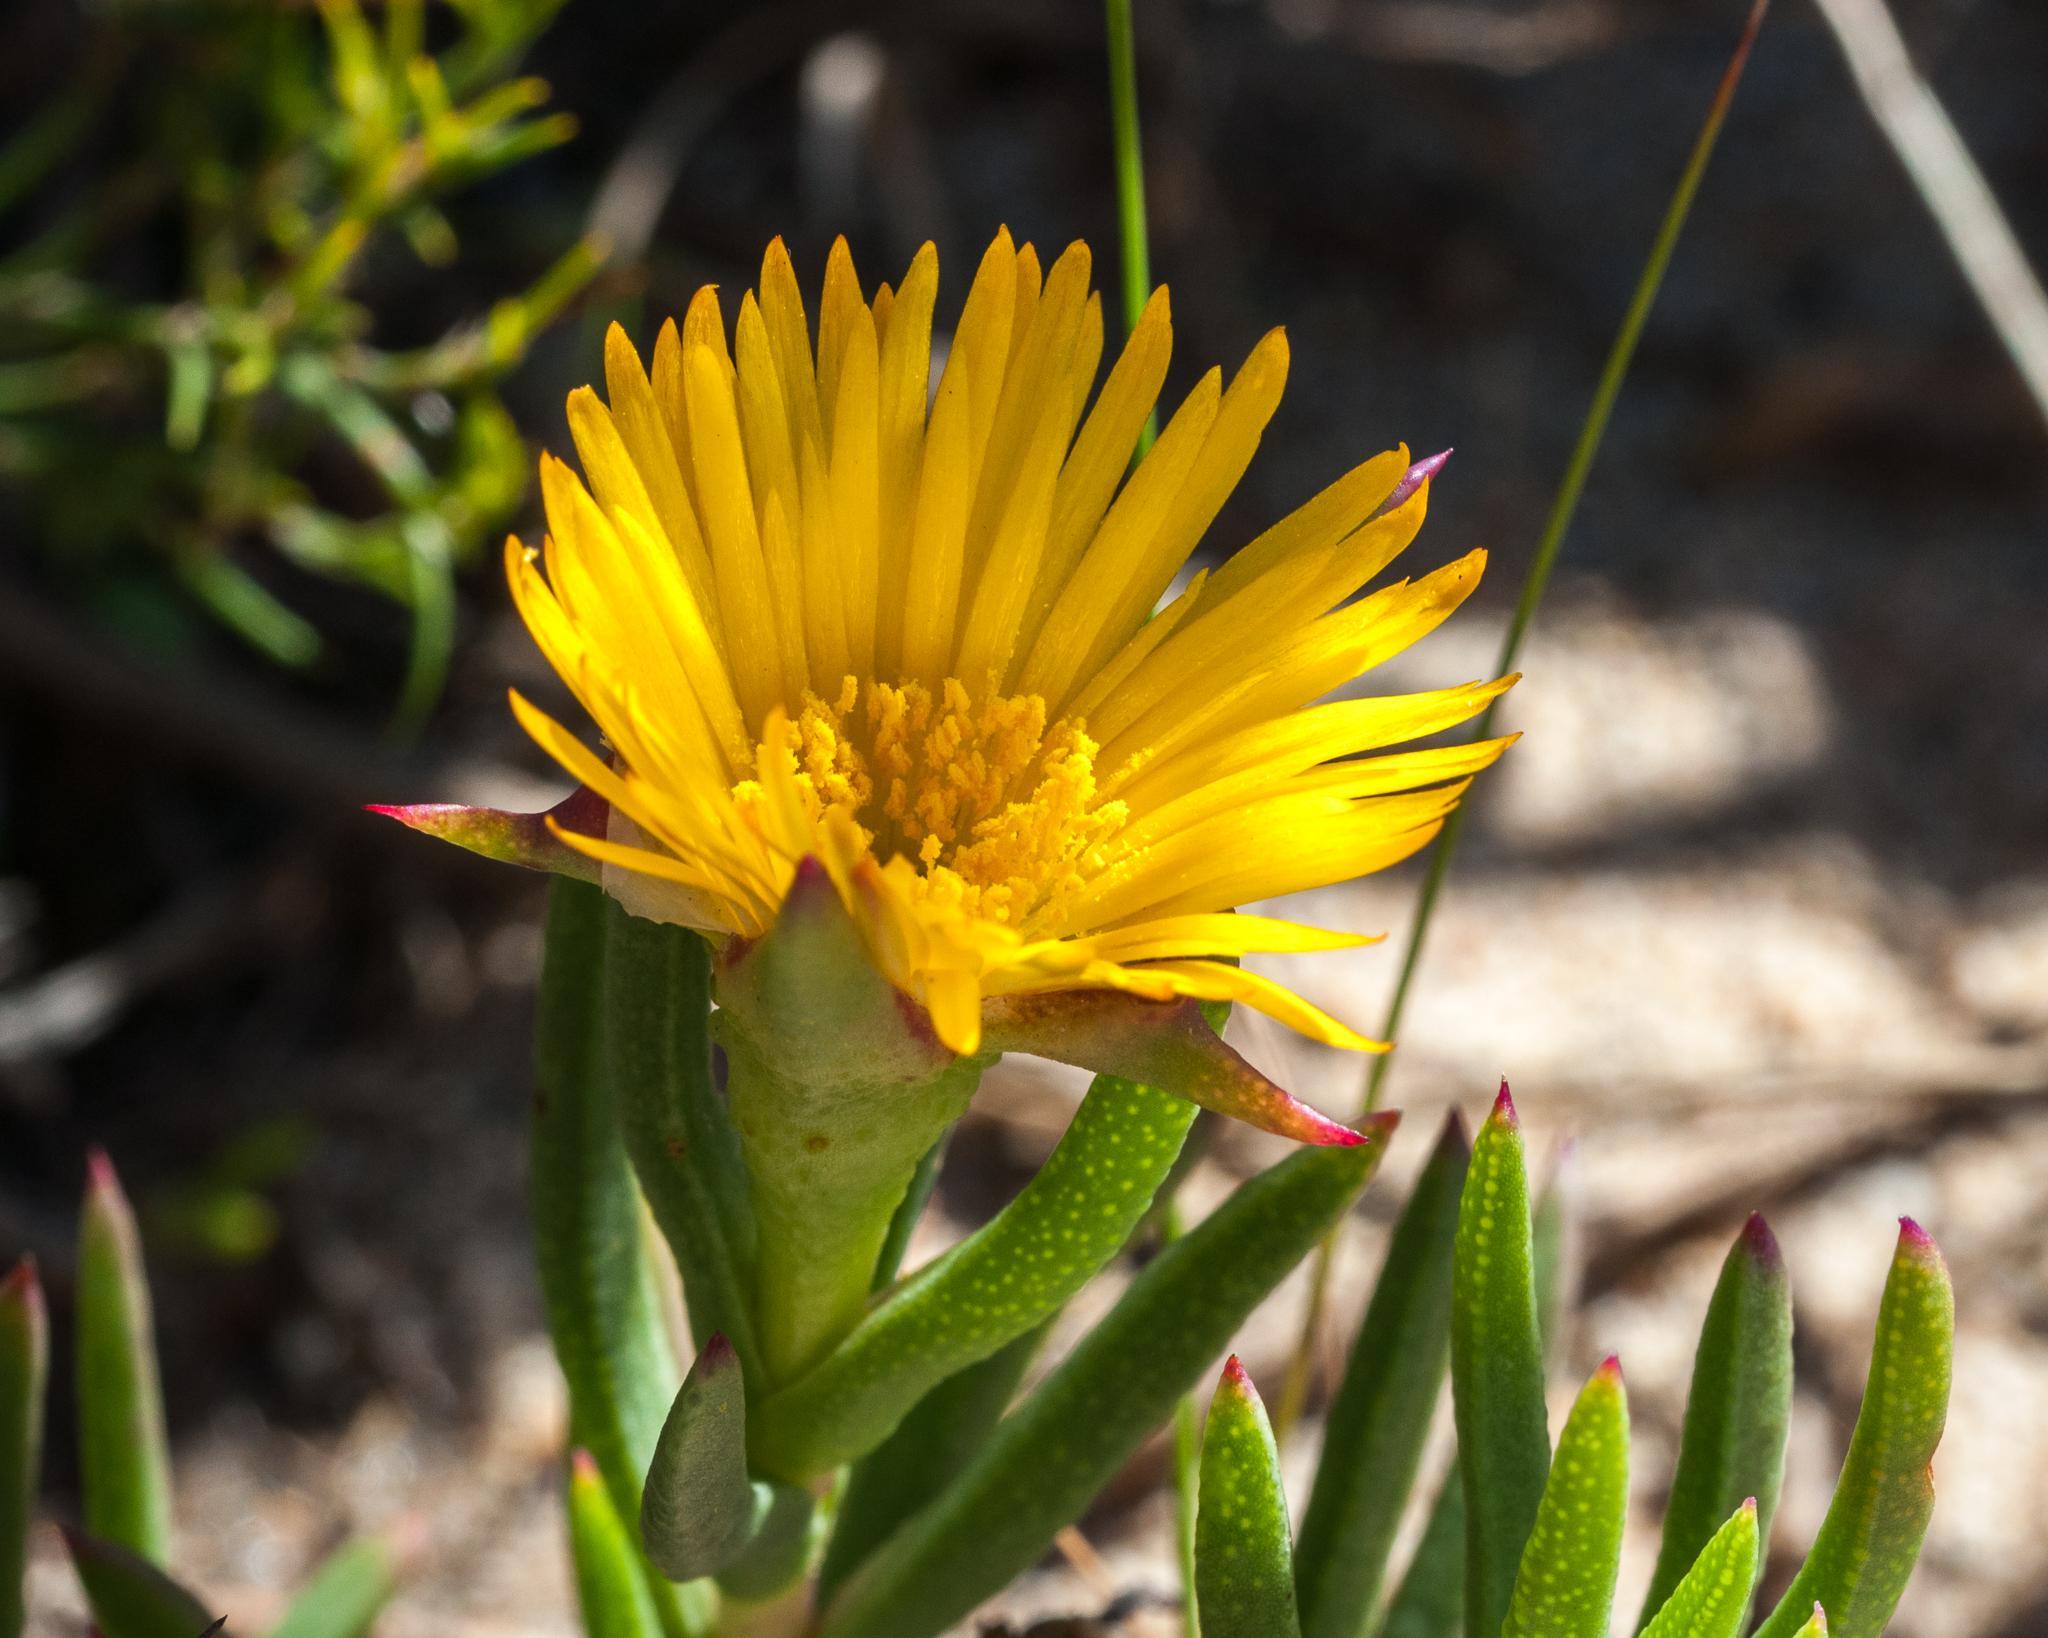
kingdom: Plantae
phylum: Tracheophyta
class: Magnoliopsida
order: Caryophyllales
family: Aizoaceae
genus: Lampranthus
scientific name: Lampranthus bicolor
